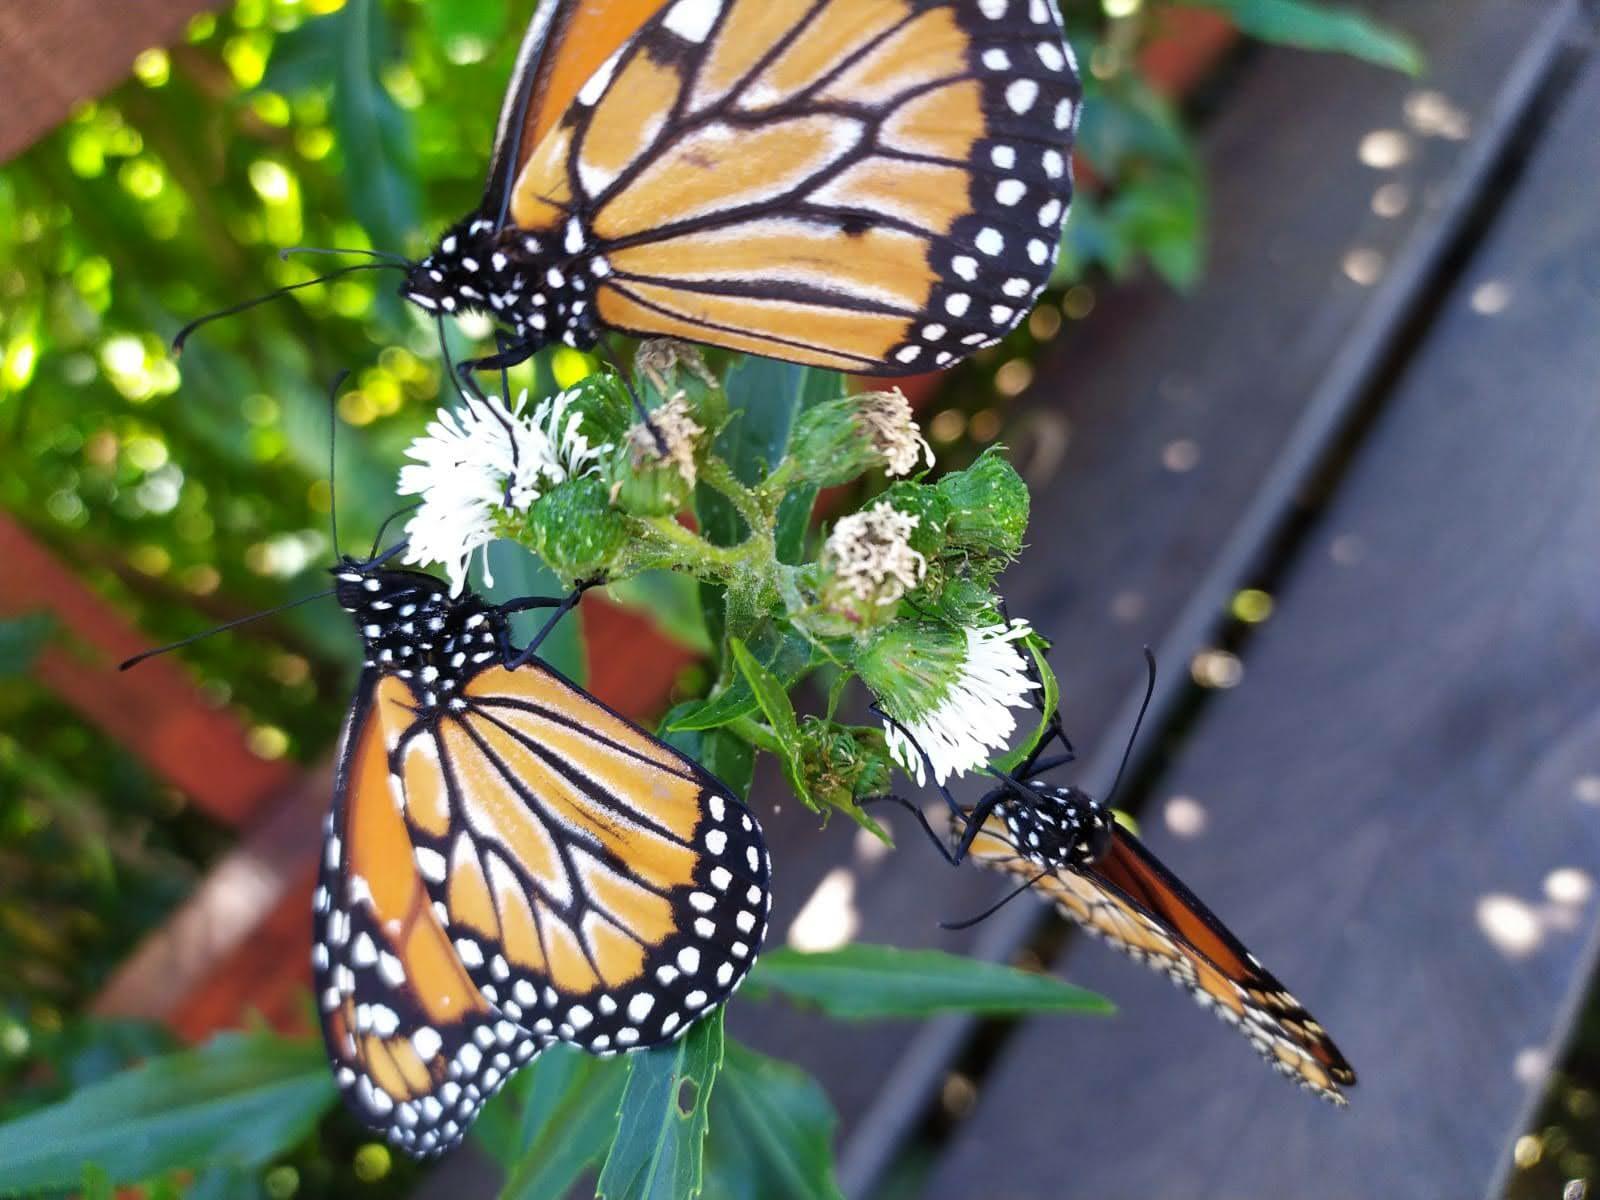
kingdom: Animalia
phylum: Arthropoda
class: Insecta
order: Lepidoptera
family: Nymphalidae
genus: Danaus
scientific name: Danaus erippus
